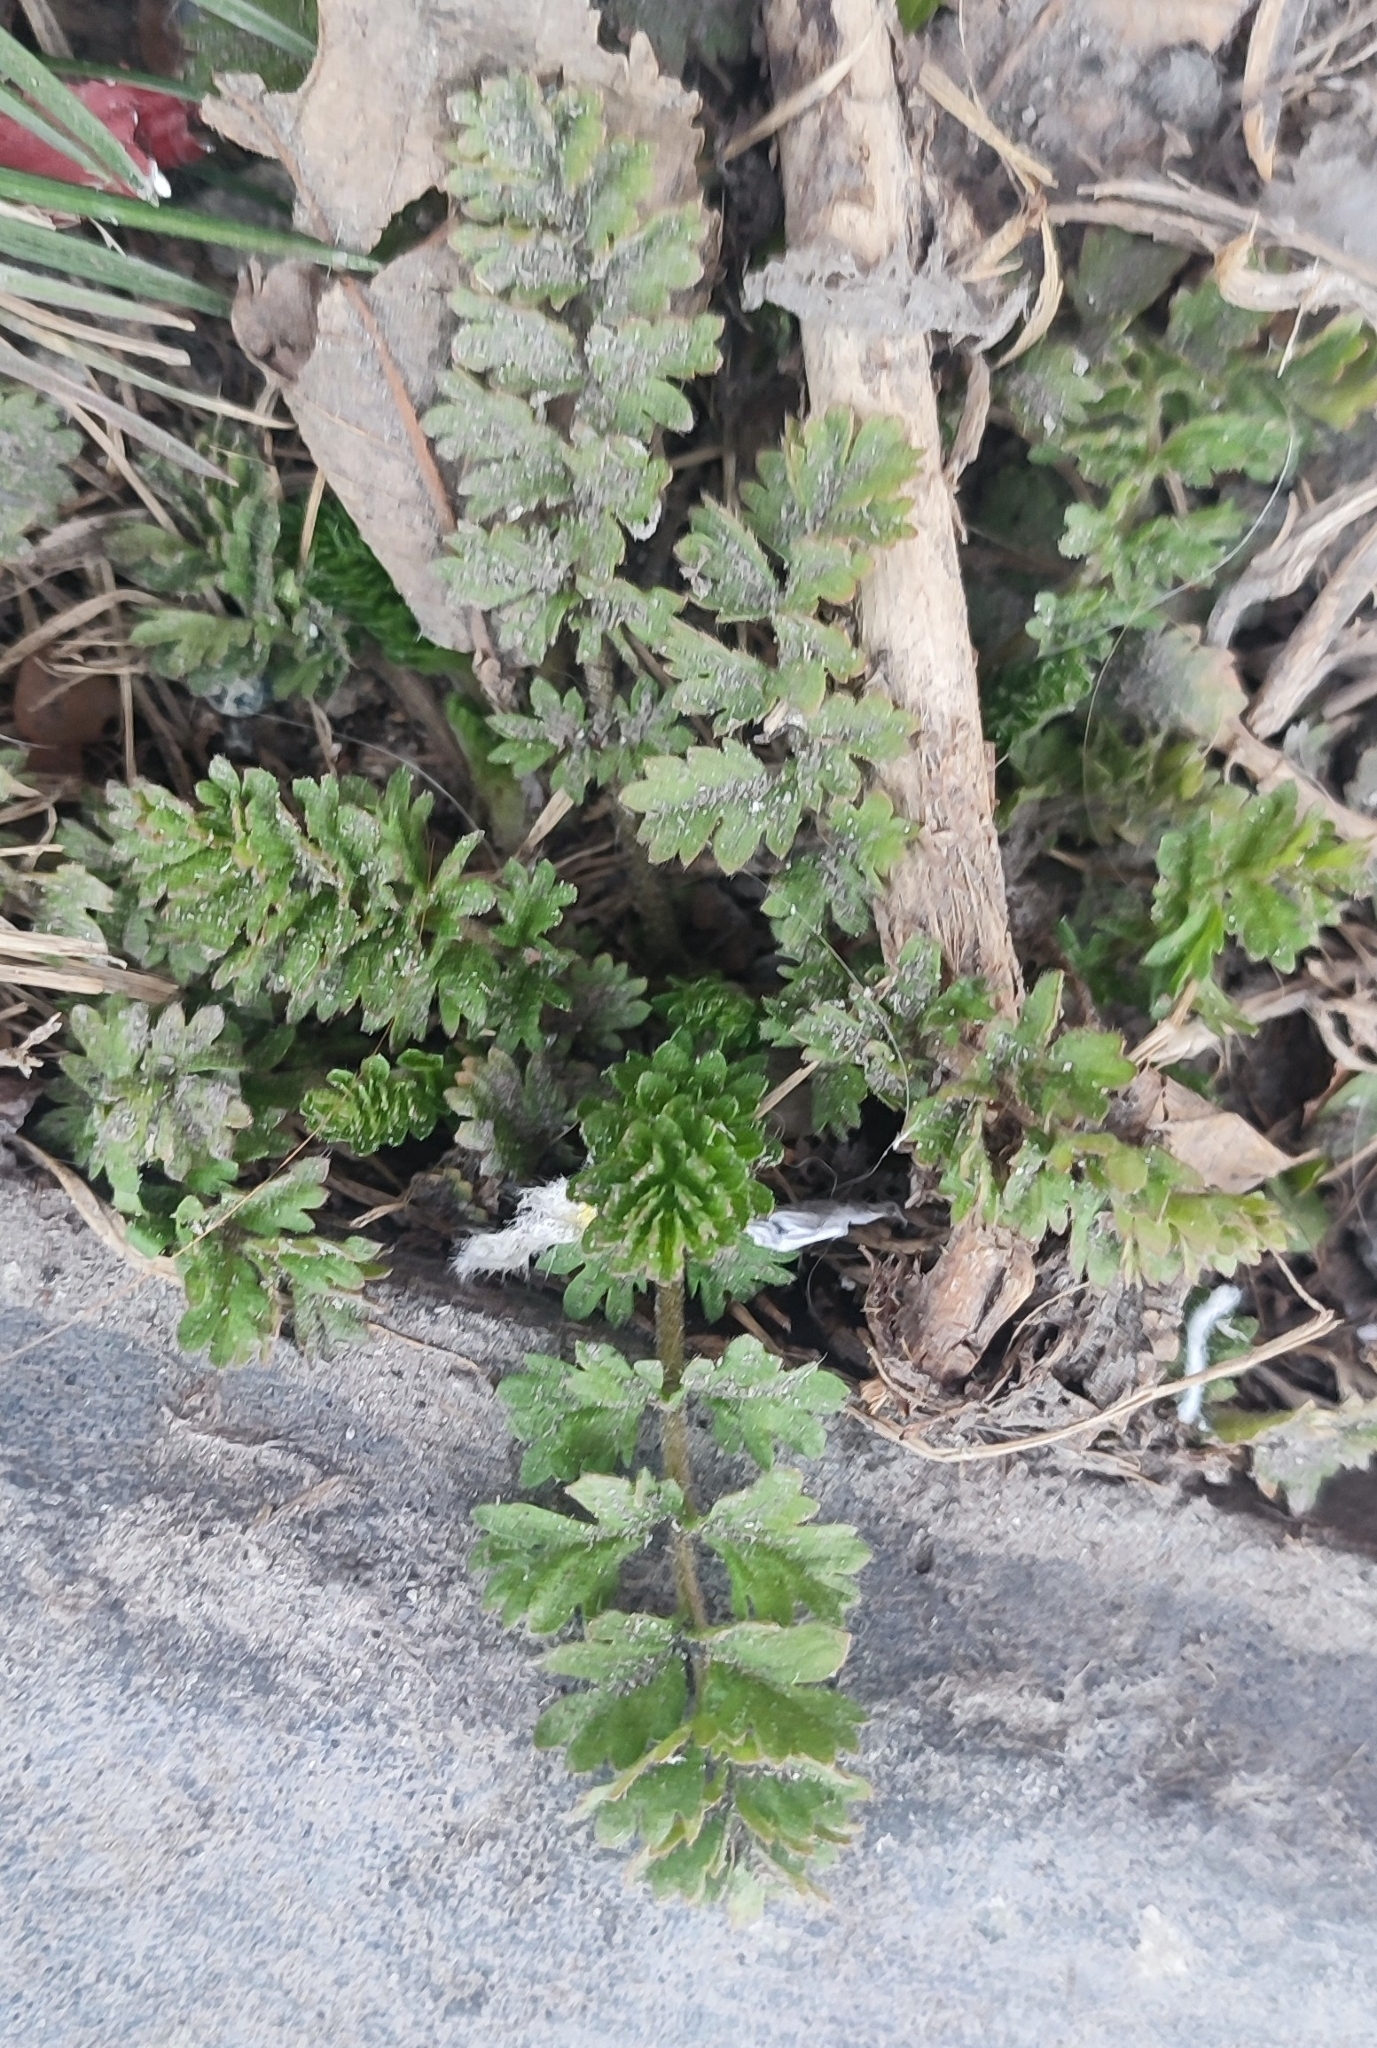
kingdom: Plantae
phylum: Tracheophyta
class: Magnoliopsida
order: Rosales
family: Rosaceae
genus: Potentilla
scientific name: Potentilla supina
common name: Prostrate cinquefoil
